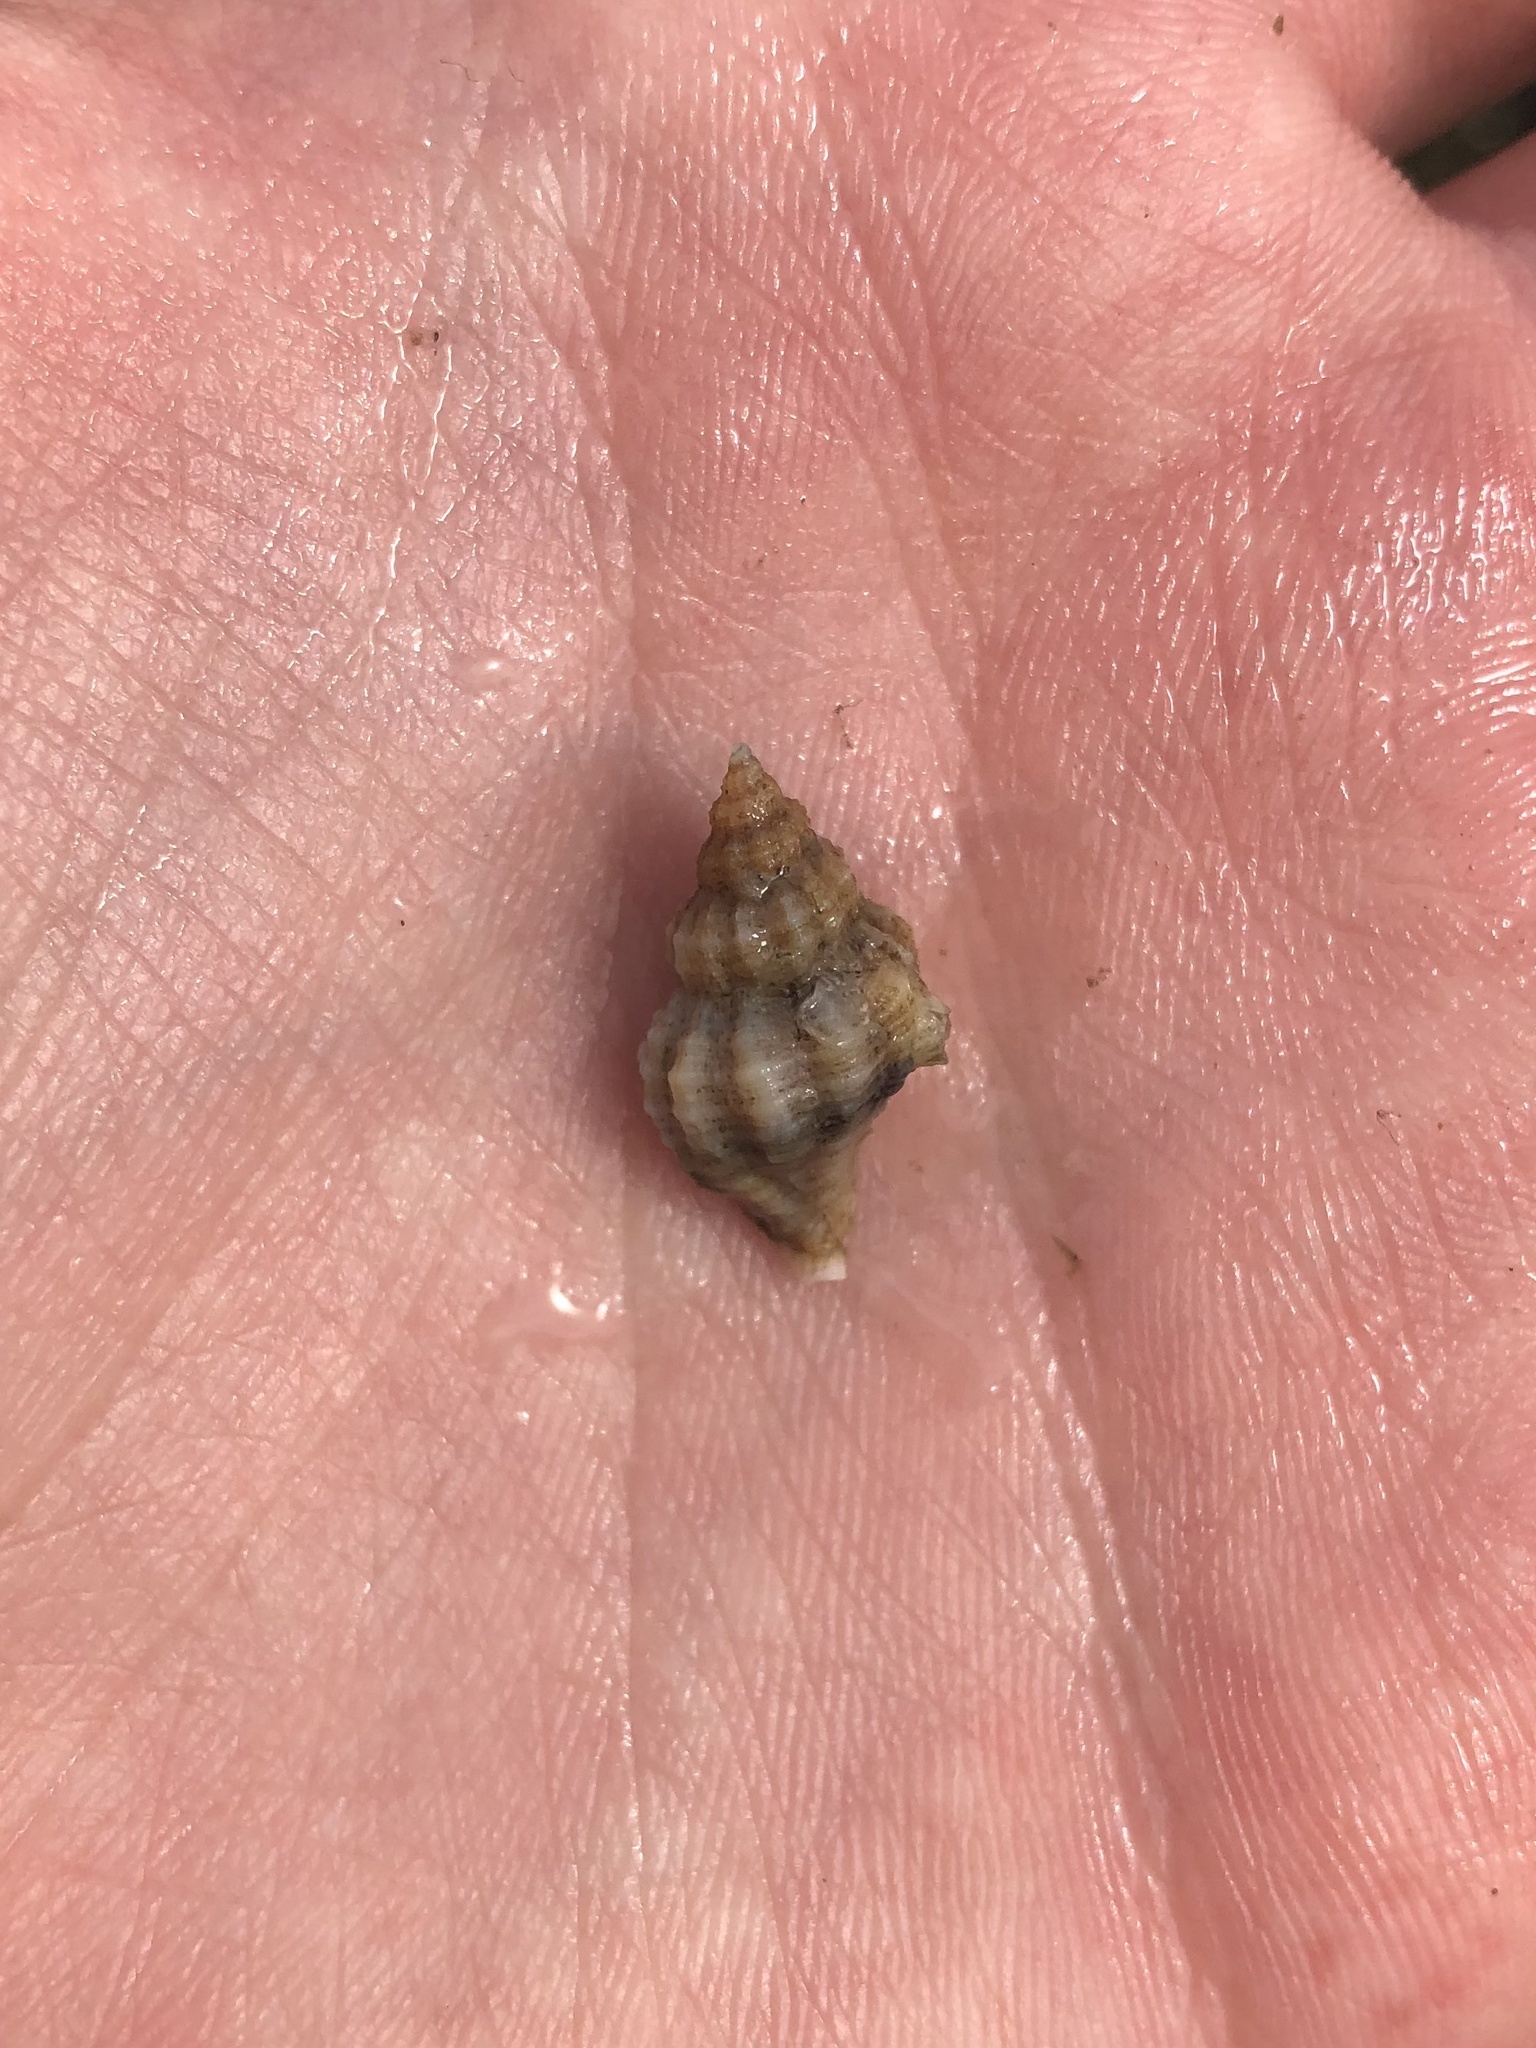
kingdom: Animalia
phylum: Mollusca
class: Gastropoda
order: Neogastropoda
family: Muricidae
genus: Urosalpinx
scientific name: Urosalpinx cinerea
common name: American sting winkle
